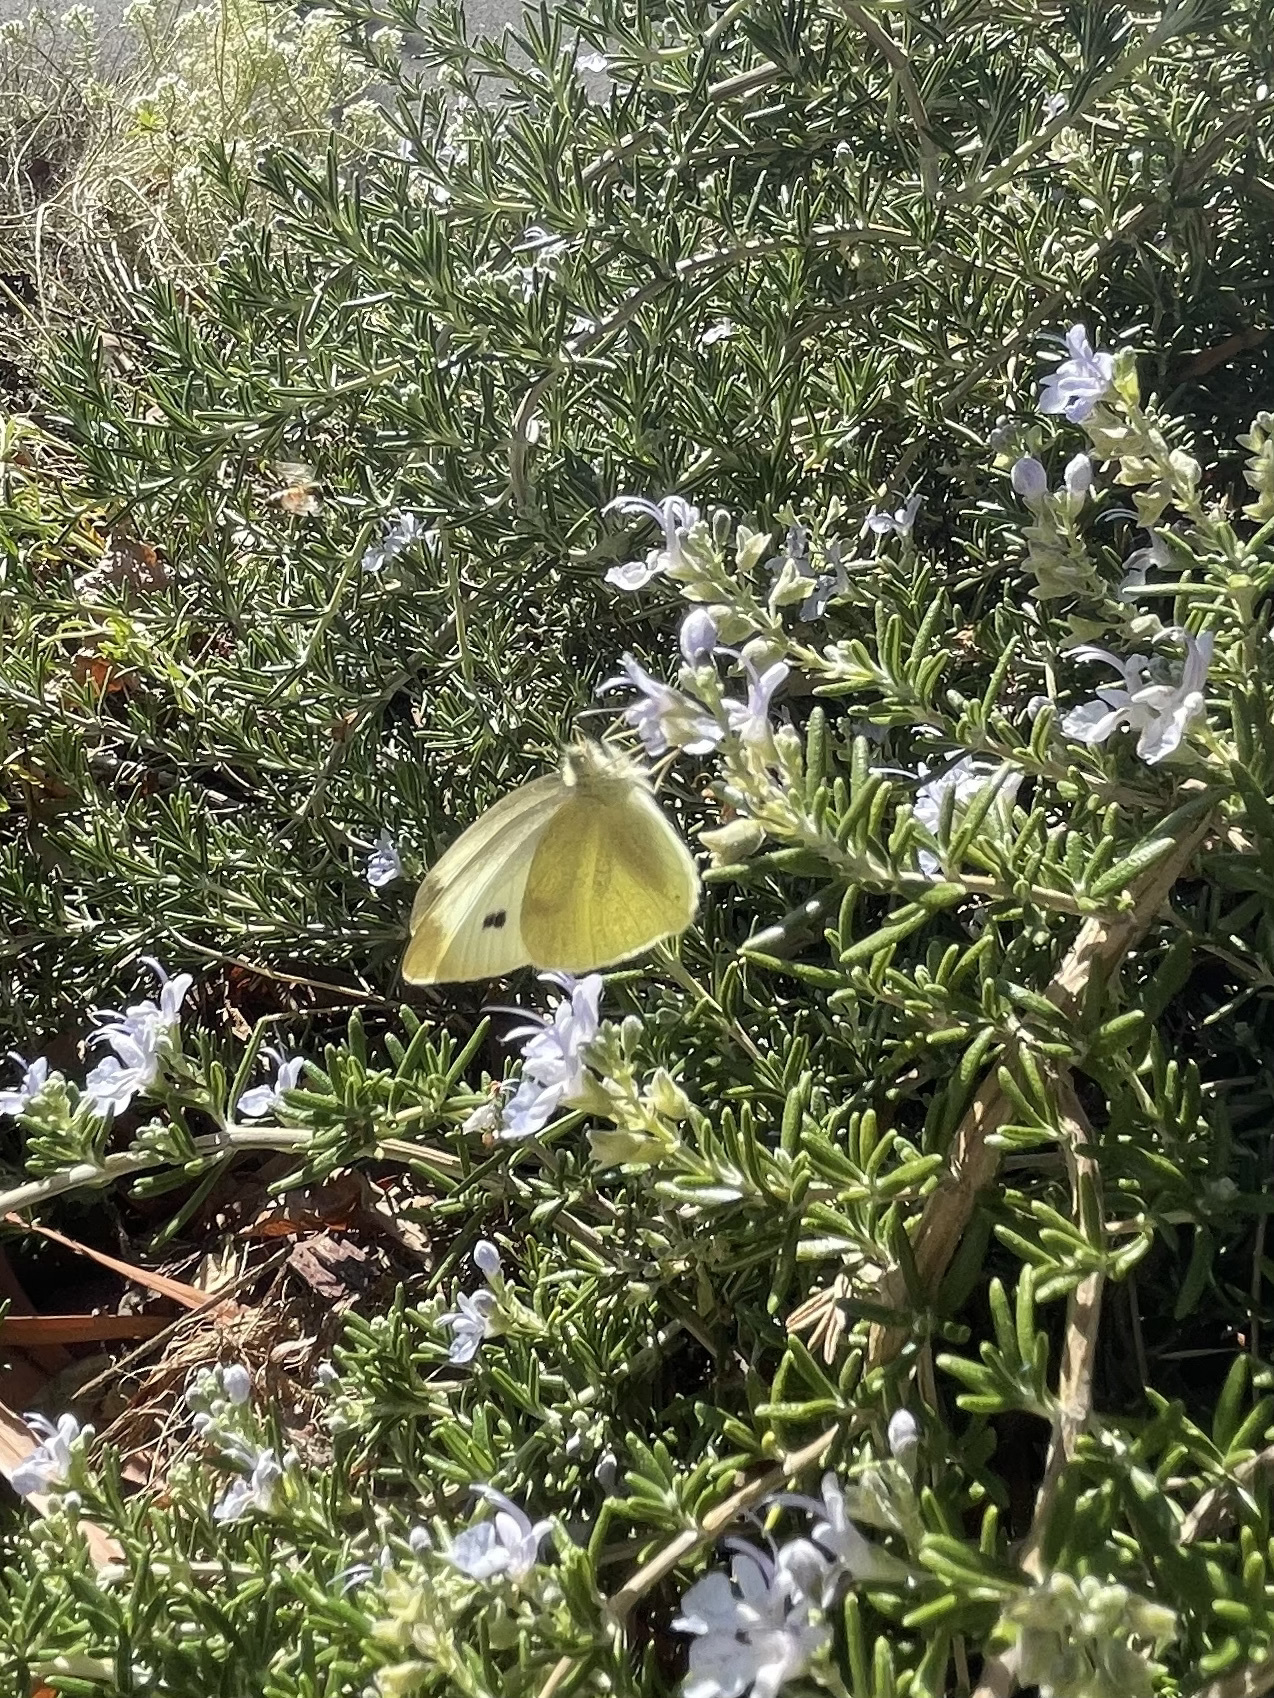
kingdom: Animalia
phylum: Arthropoda
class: Insecta
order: Lepidoptera
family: Pieridae
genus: Pieris
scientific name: Pieris rapae
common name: Small white
